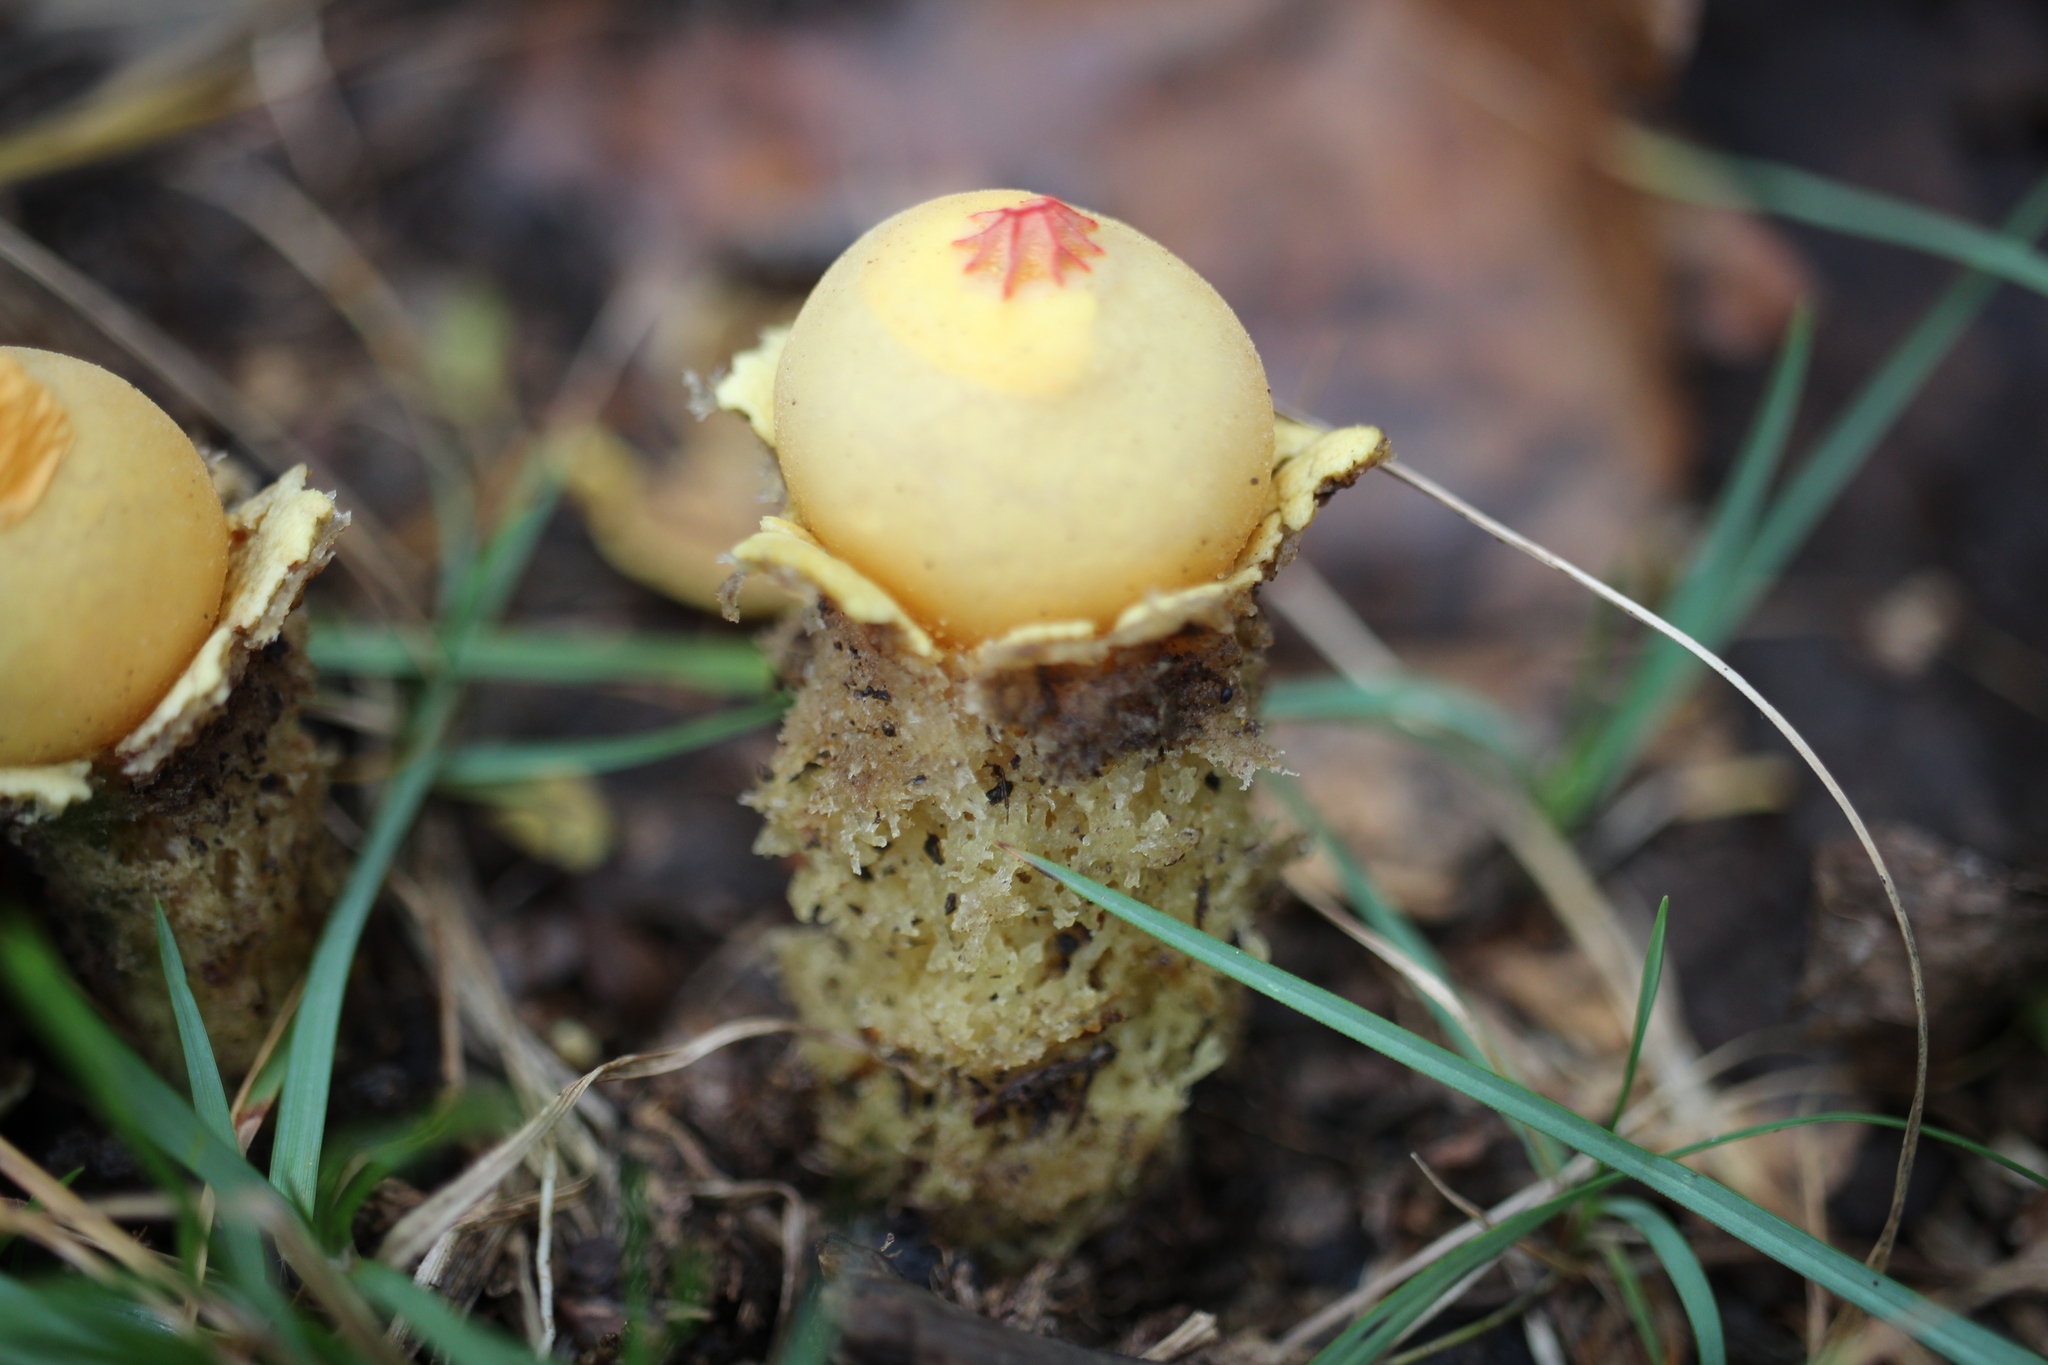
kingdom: Fungi
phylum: Basidiomycota
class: Agaricomycetes
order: Boletales
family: Calostomataceae
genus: Calostoma
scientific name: Calostoma lutescens
